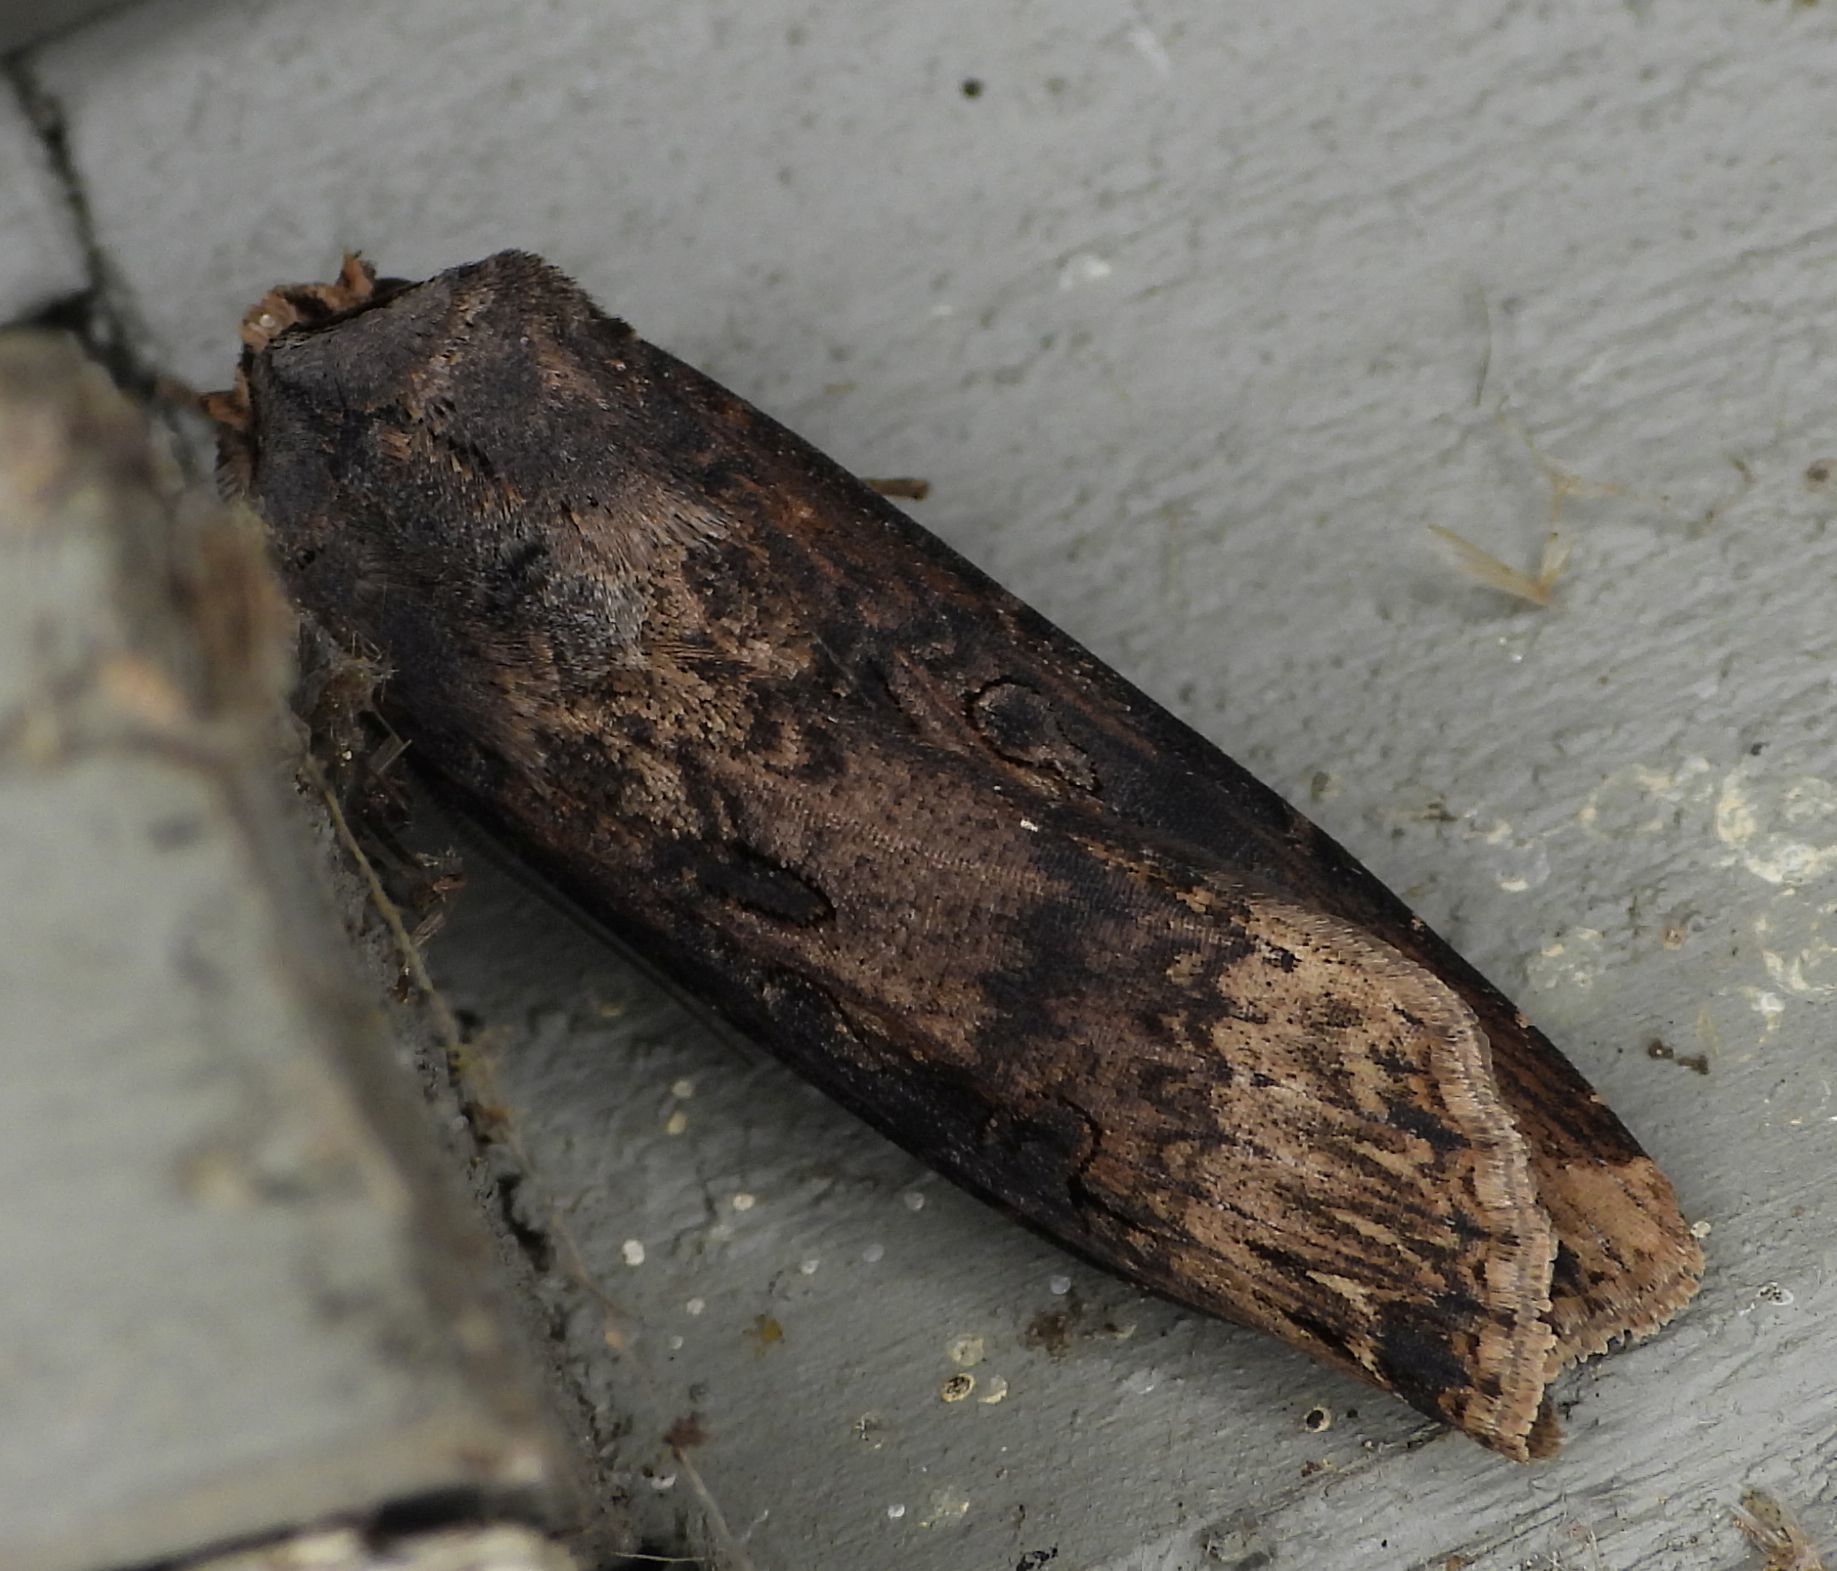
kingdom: Animalia
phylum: Arthropoda
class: Insecta
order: Lepidoptera
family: Noctuidae
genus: Agrotis
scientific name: Agrotis ipsilon
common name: Dark sword-grass
